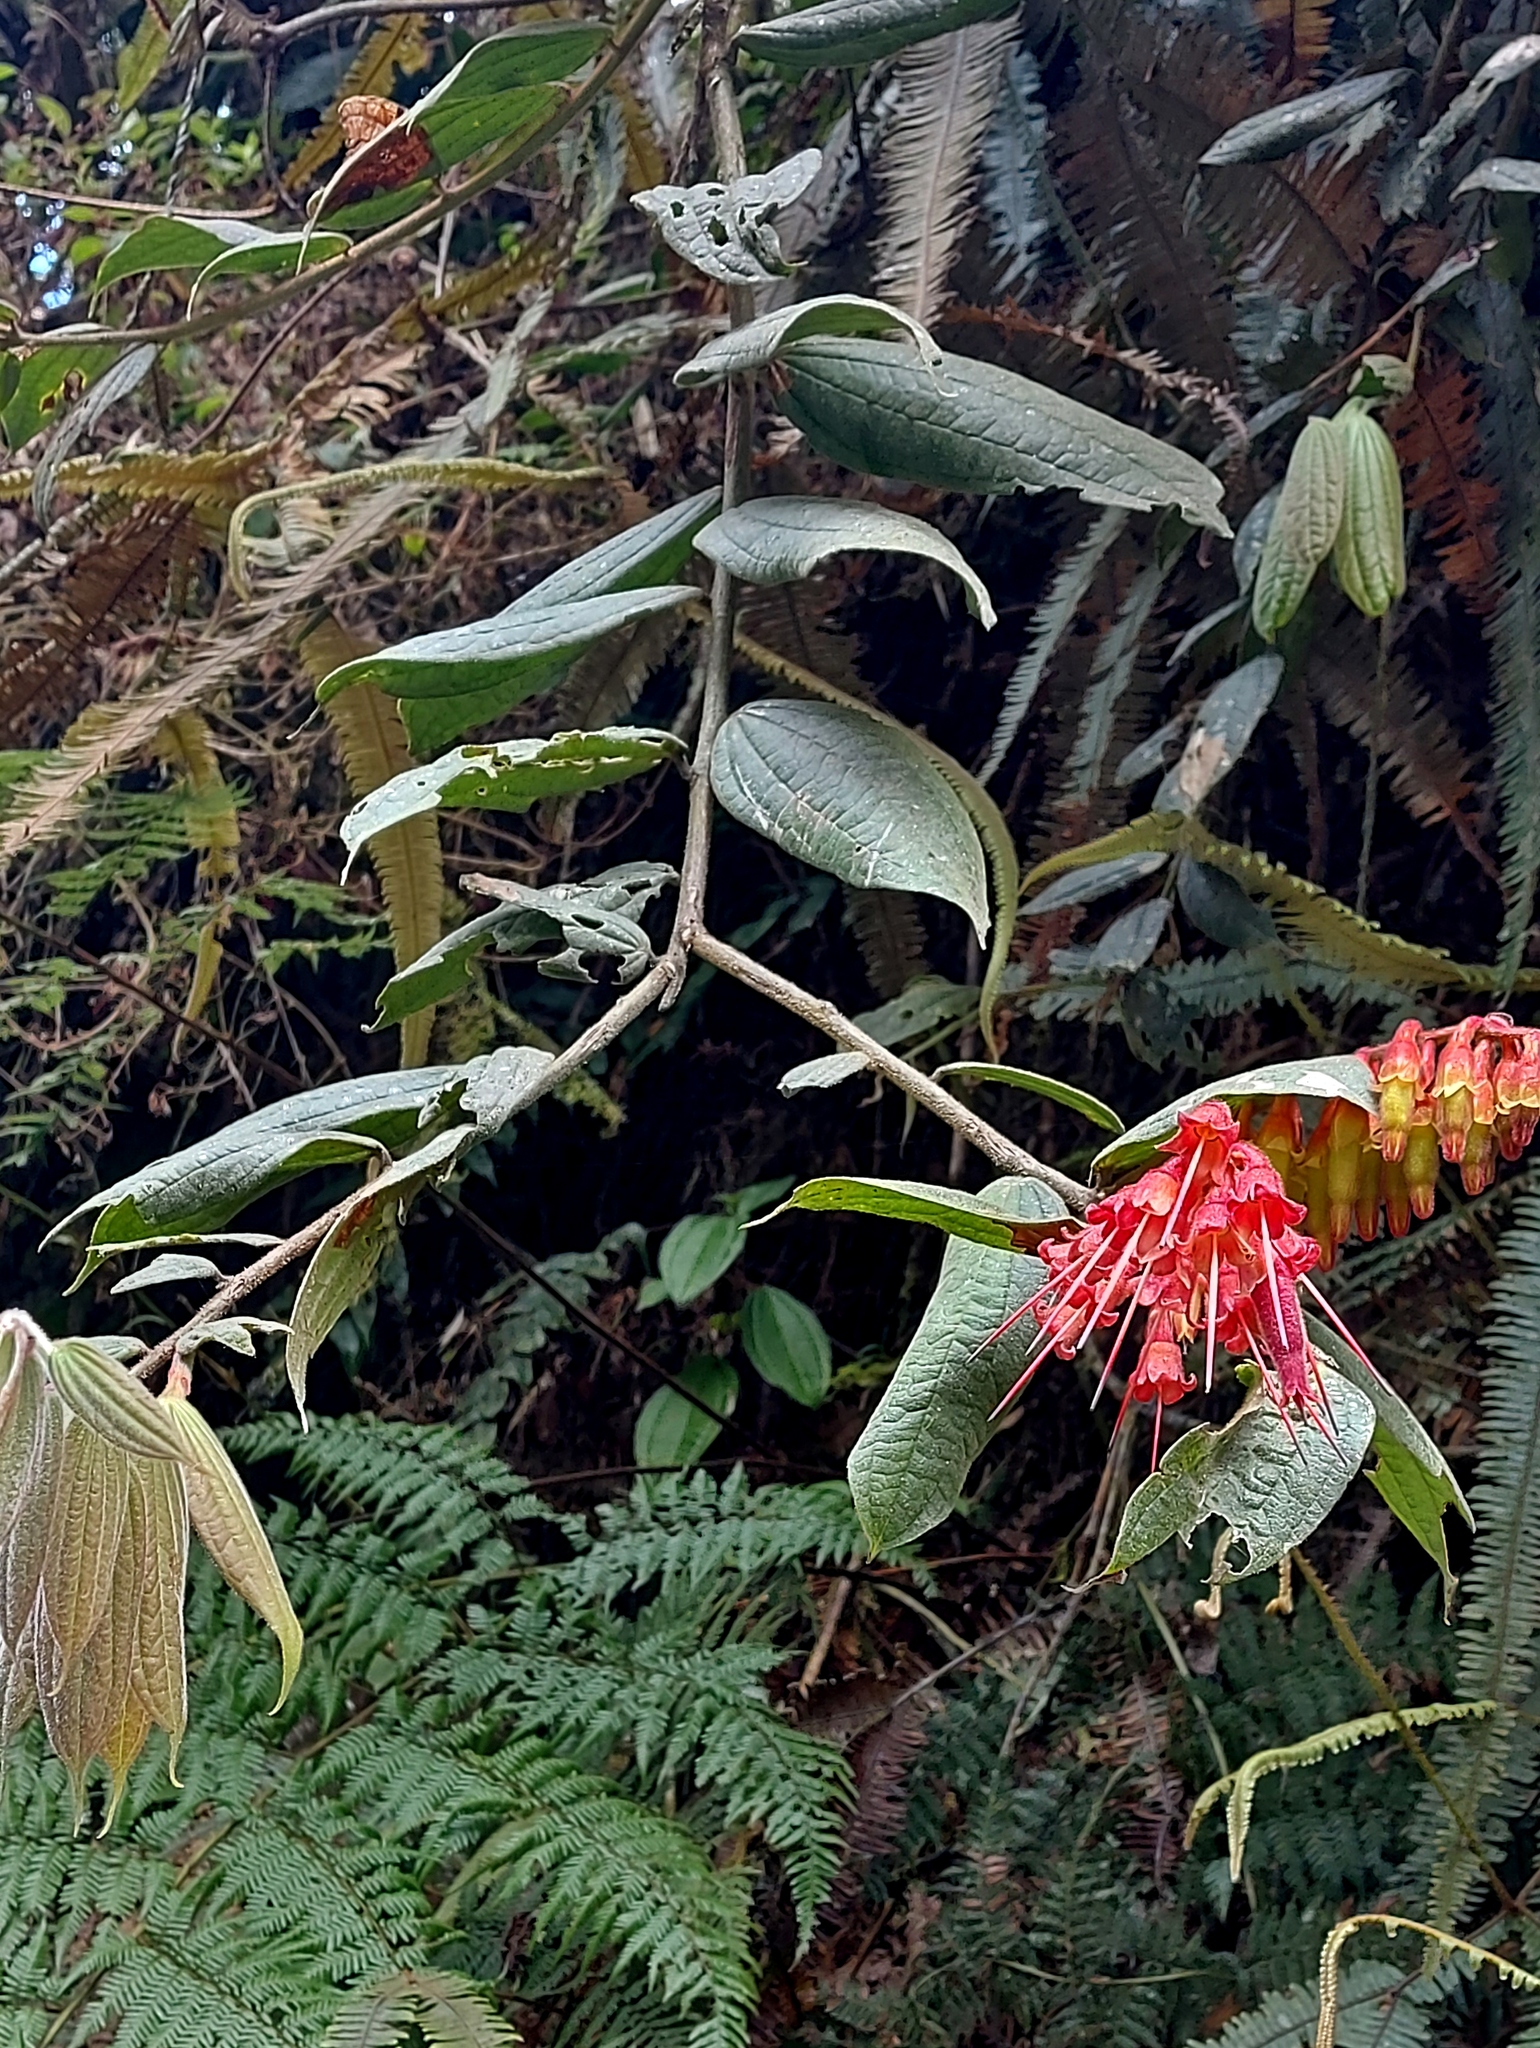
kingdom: Plantae
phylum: Tracheophyta
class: Magnoliopsida
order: Ericales
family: Ericaceae
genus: Psammisia
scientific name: Psammisia ferruginea
